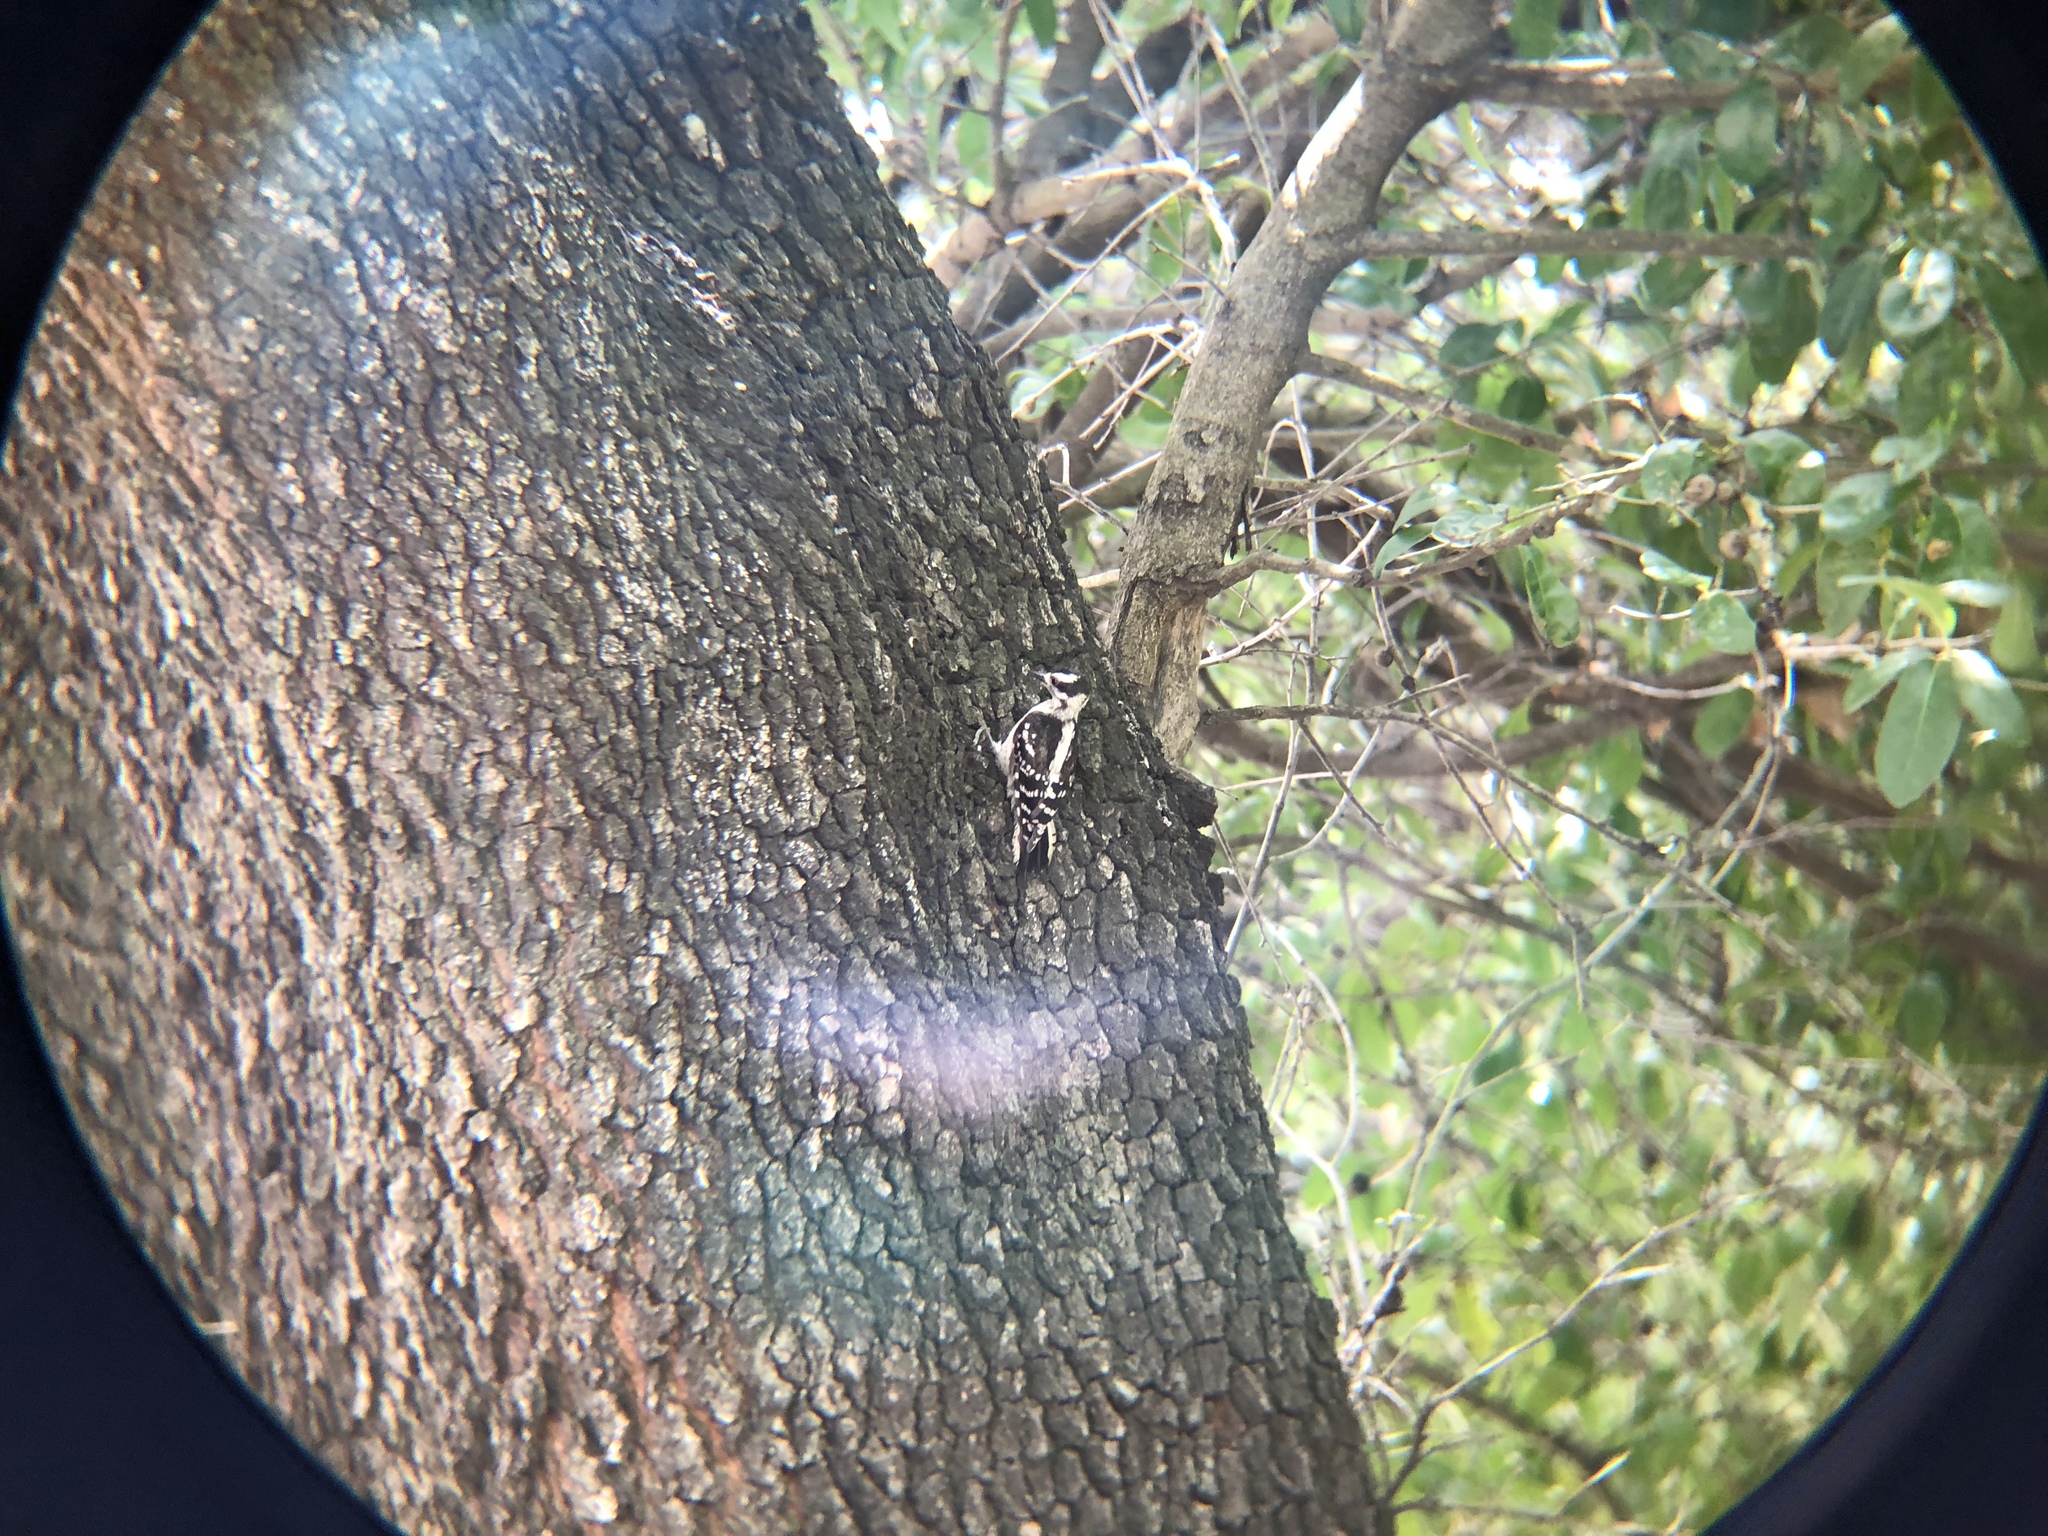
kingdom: Animalia
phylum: Chordata
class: Aves
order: Piciformes
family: Picidae
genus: Dryobates
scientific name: Dryobates pubescens
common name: Downy woodpecker
